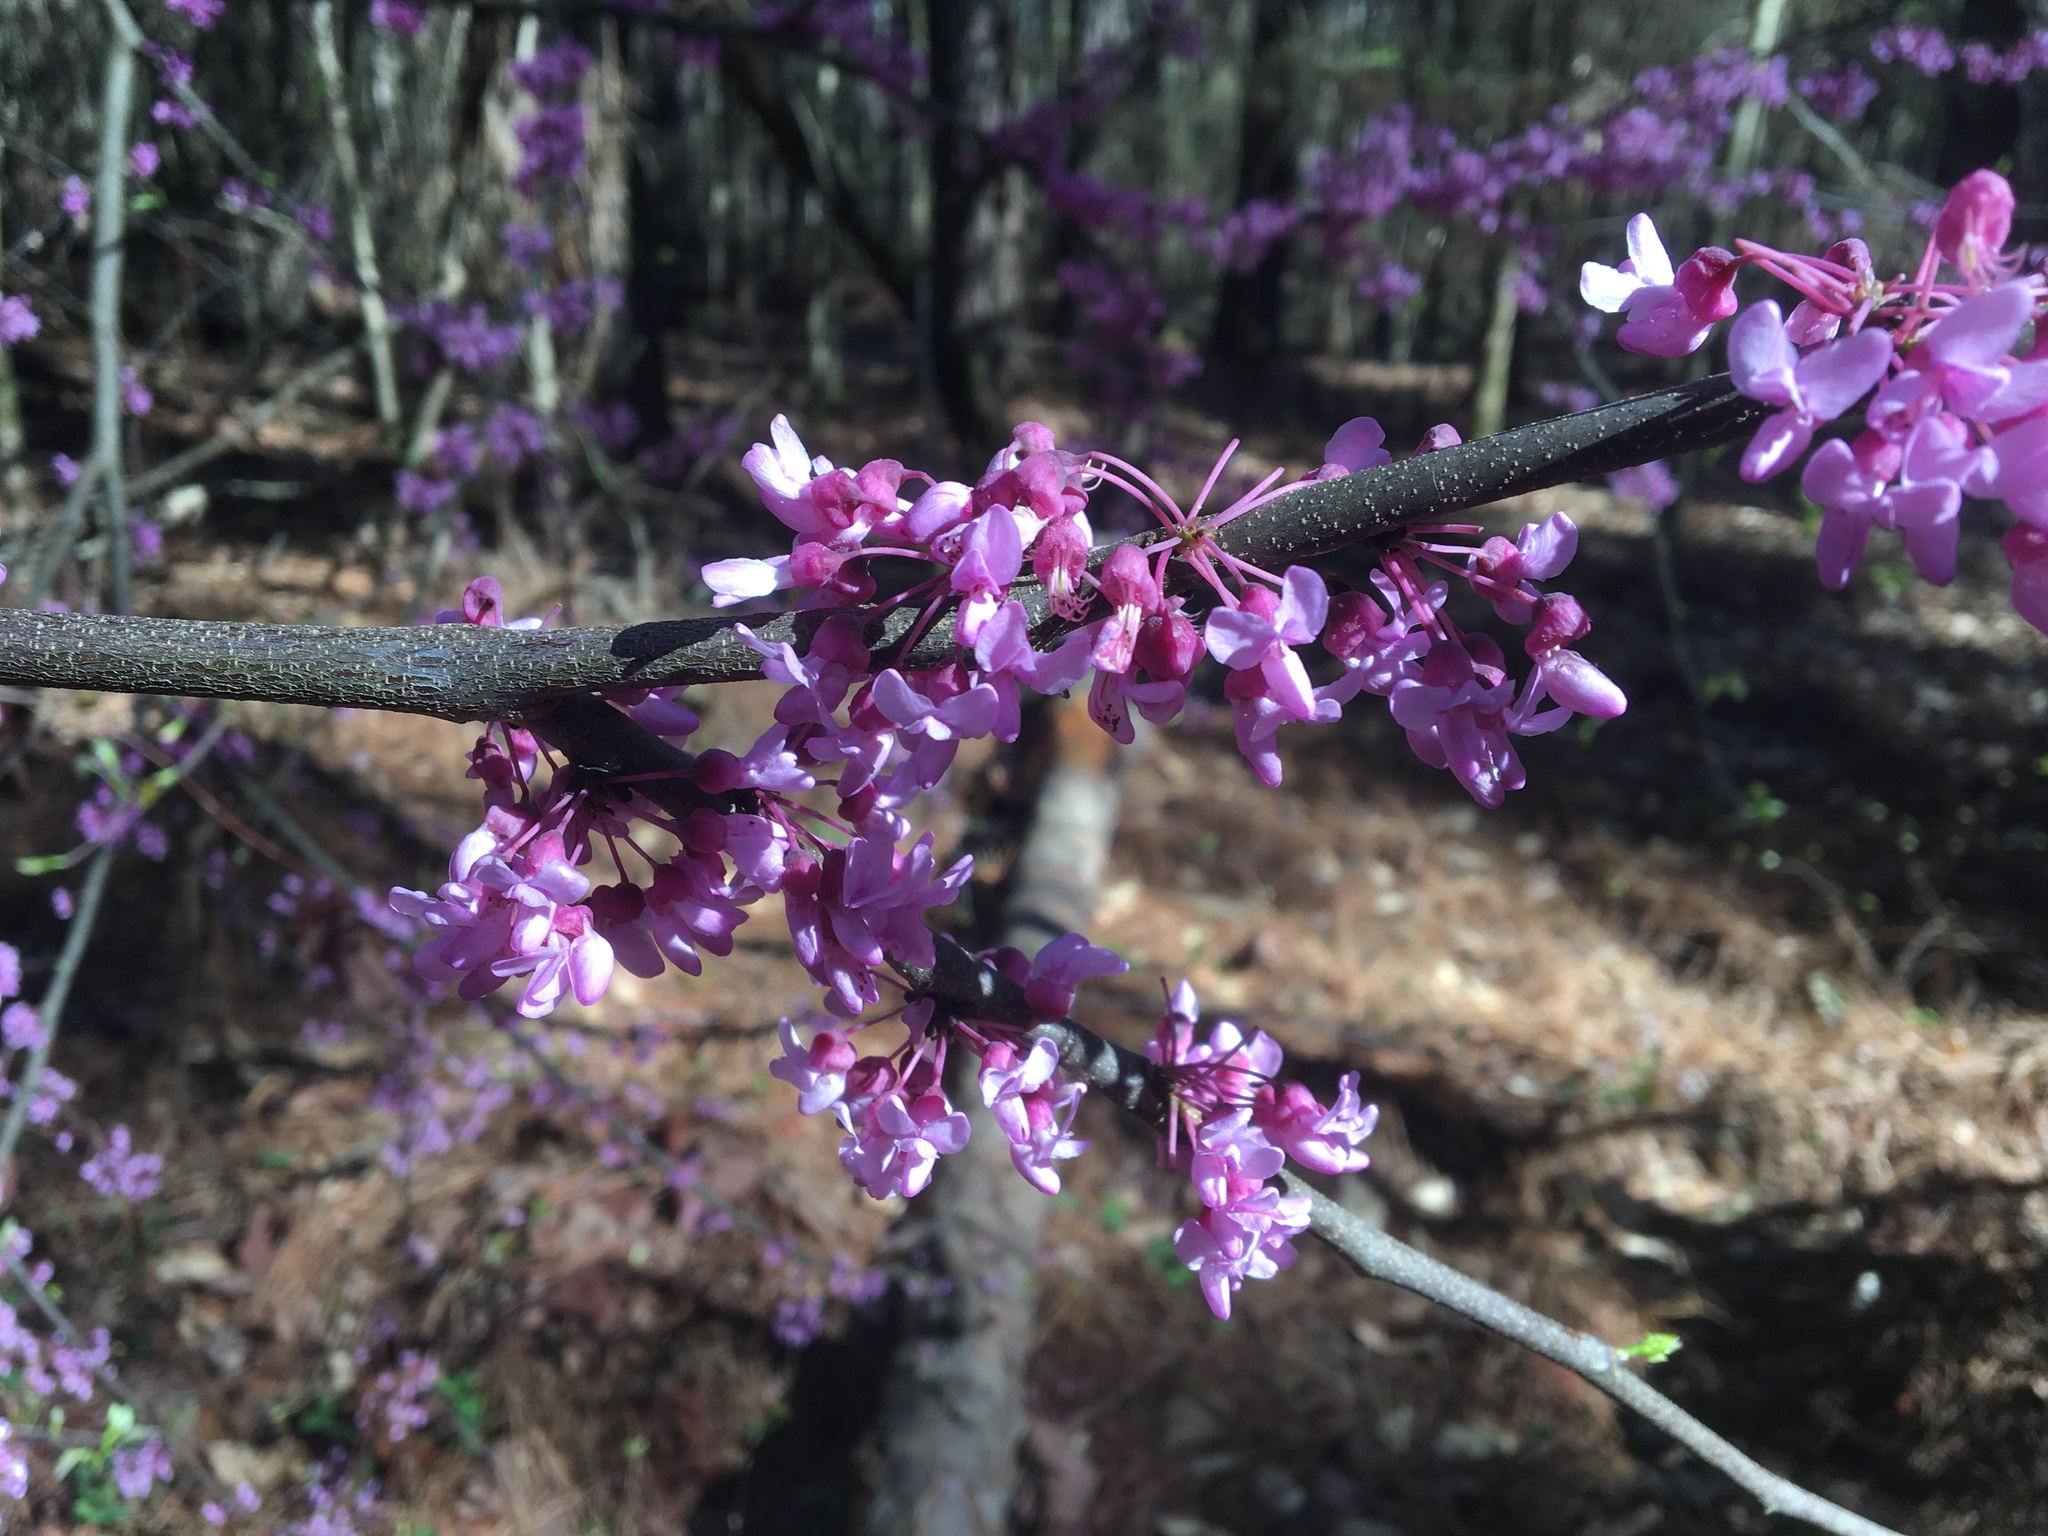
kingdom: Plantae
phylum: Tracheophyta
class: Magnoliopsida
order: Fabales
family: Fabaceae
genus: Cercis
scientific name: Cercis canadensis
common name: Eastern redbud
